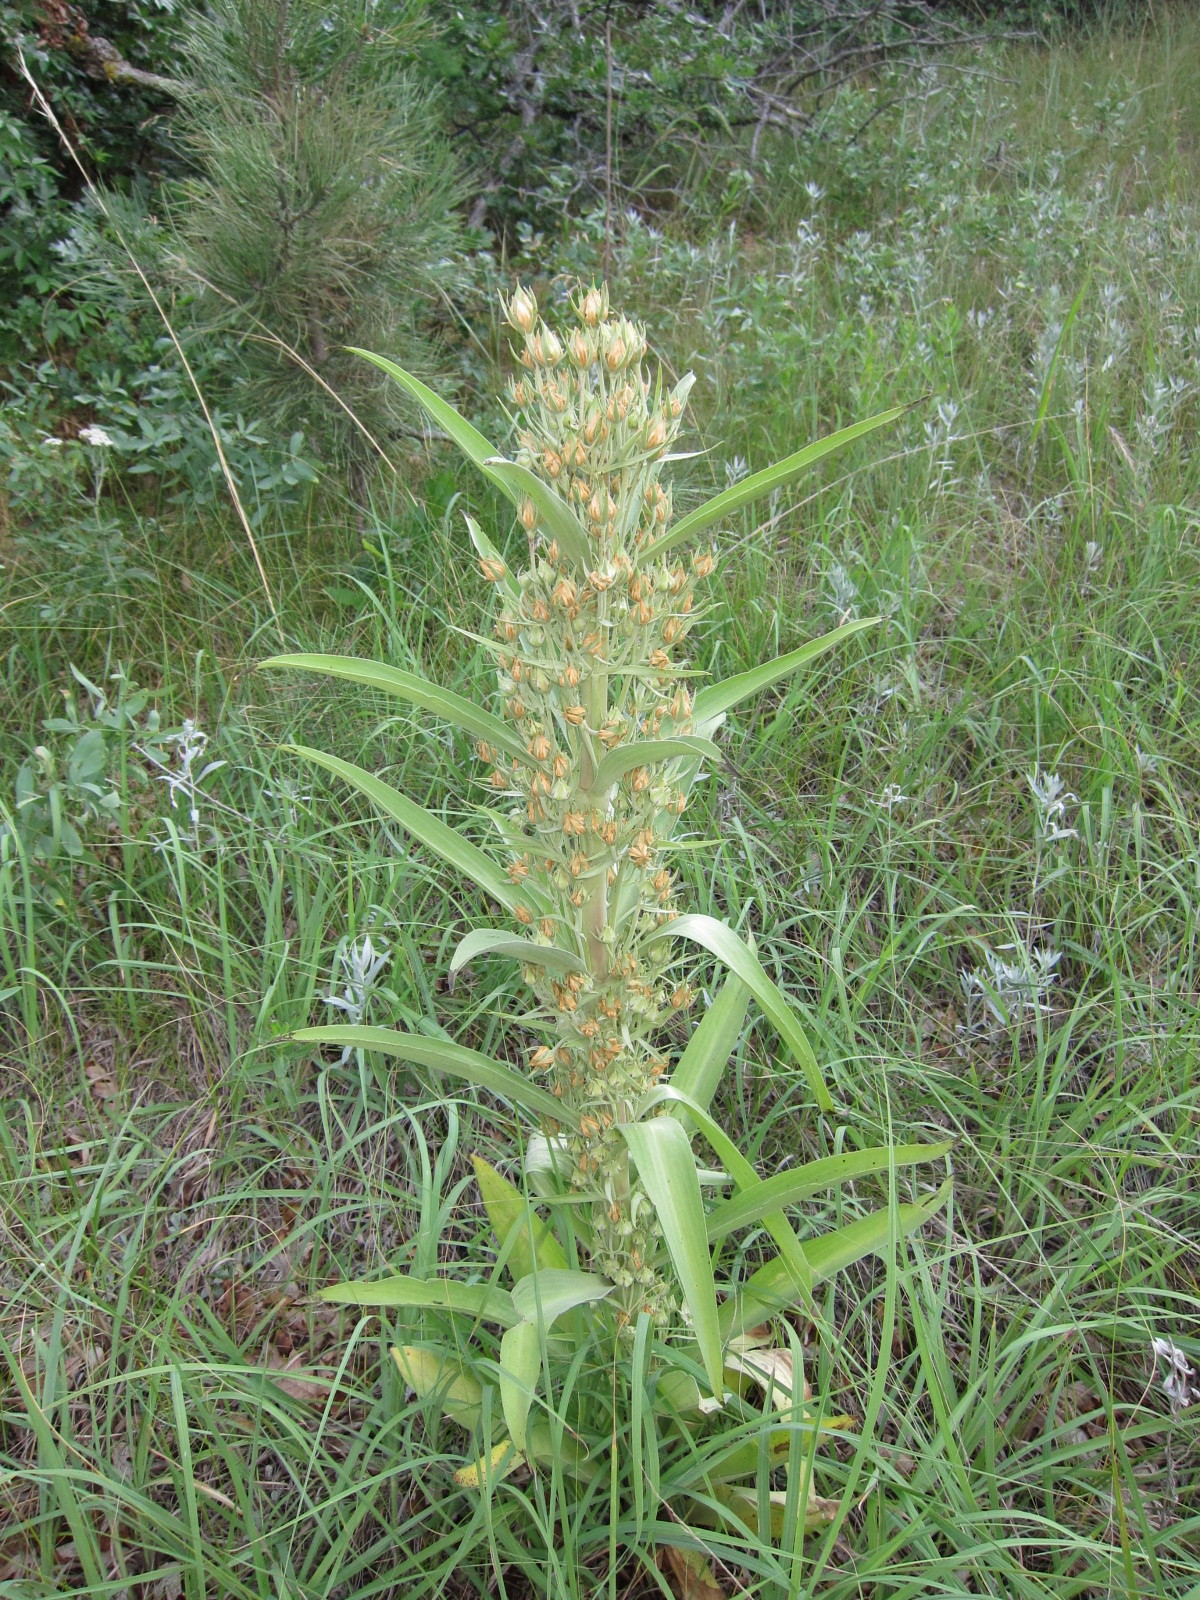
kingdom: Plantae
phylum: Tracheophyta
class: Magnoliopsida
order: Gentianales
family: Gentianaceae
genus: Frasera
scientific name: Frasera speciosa
